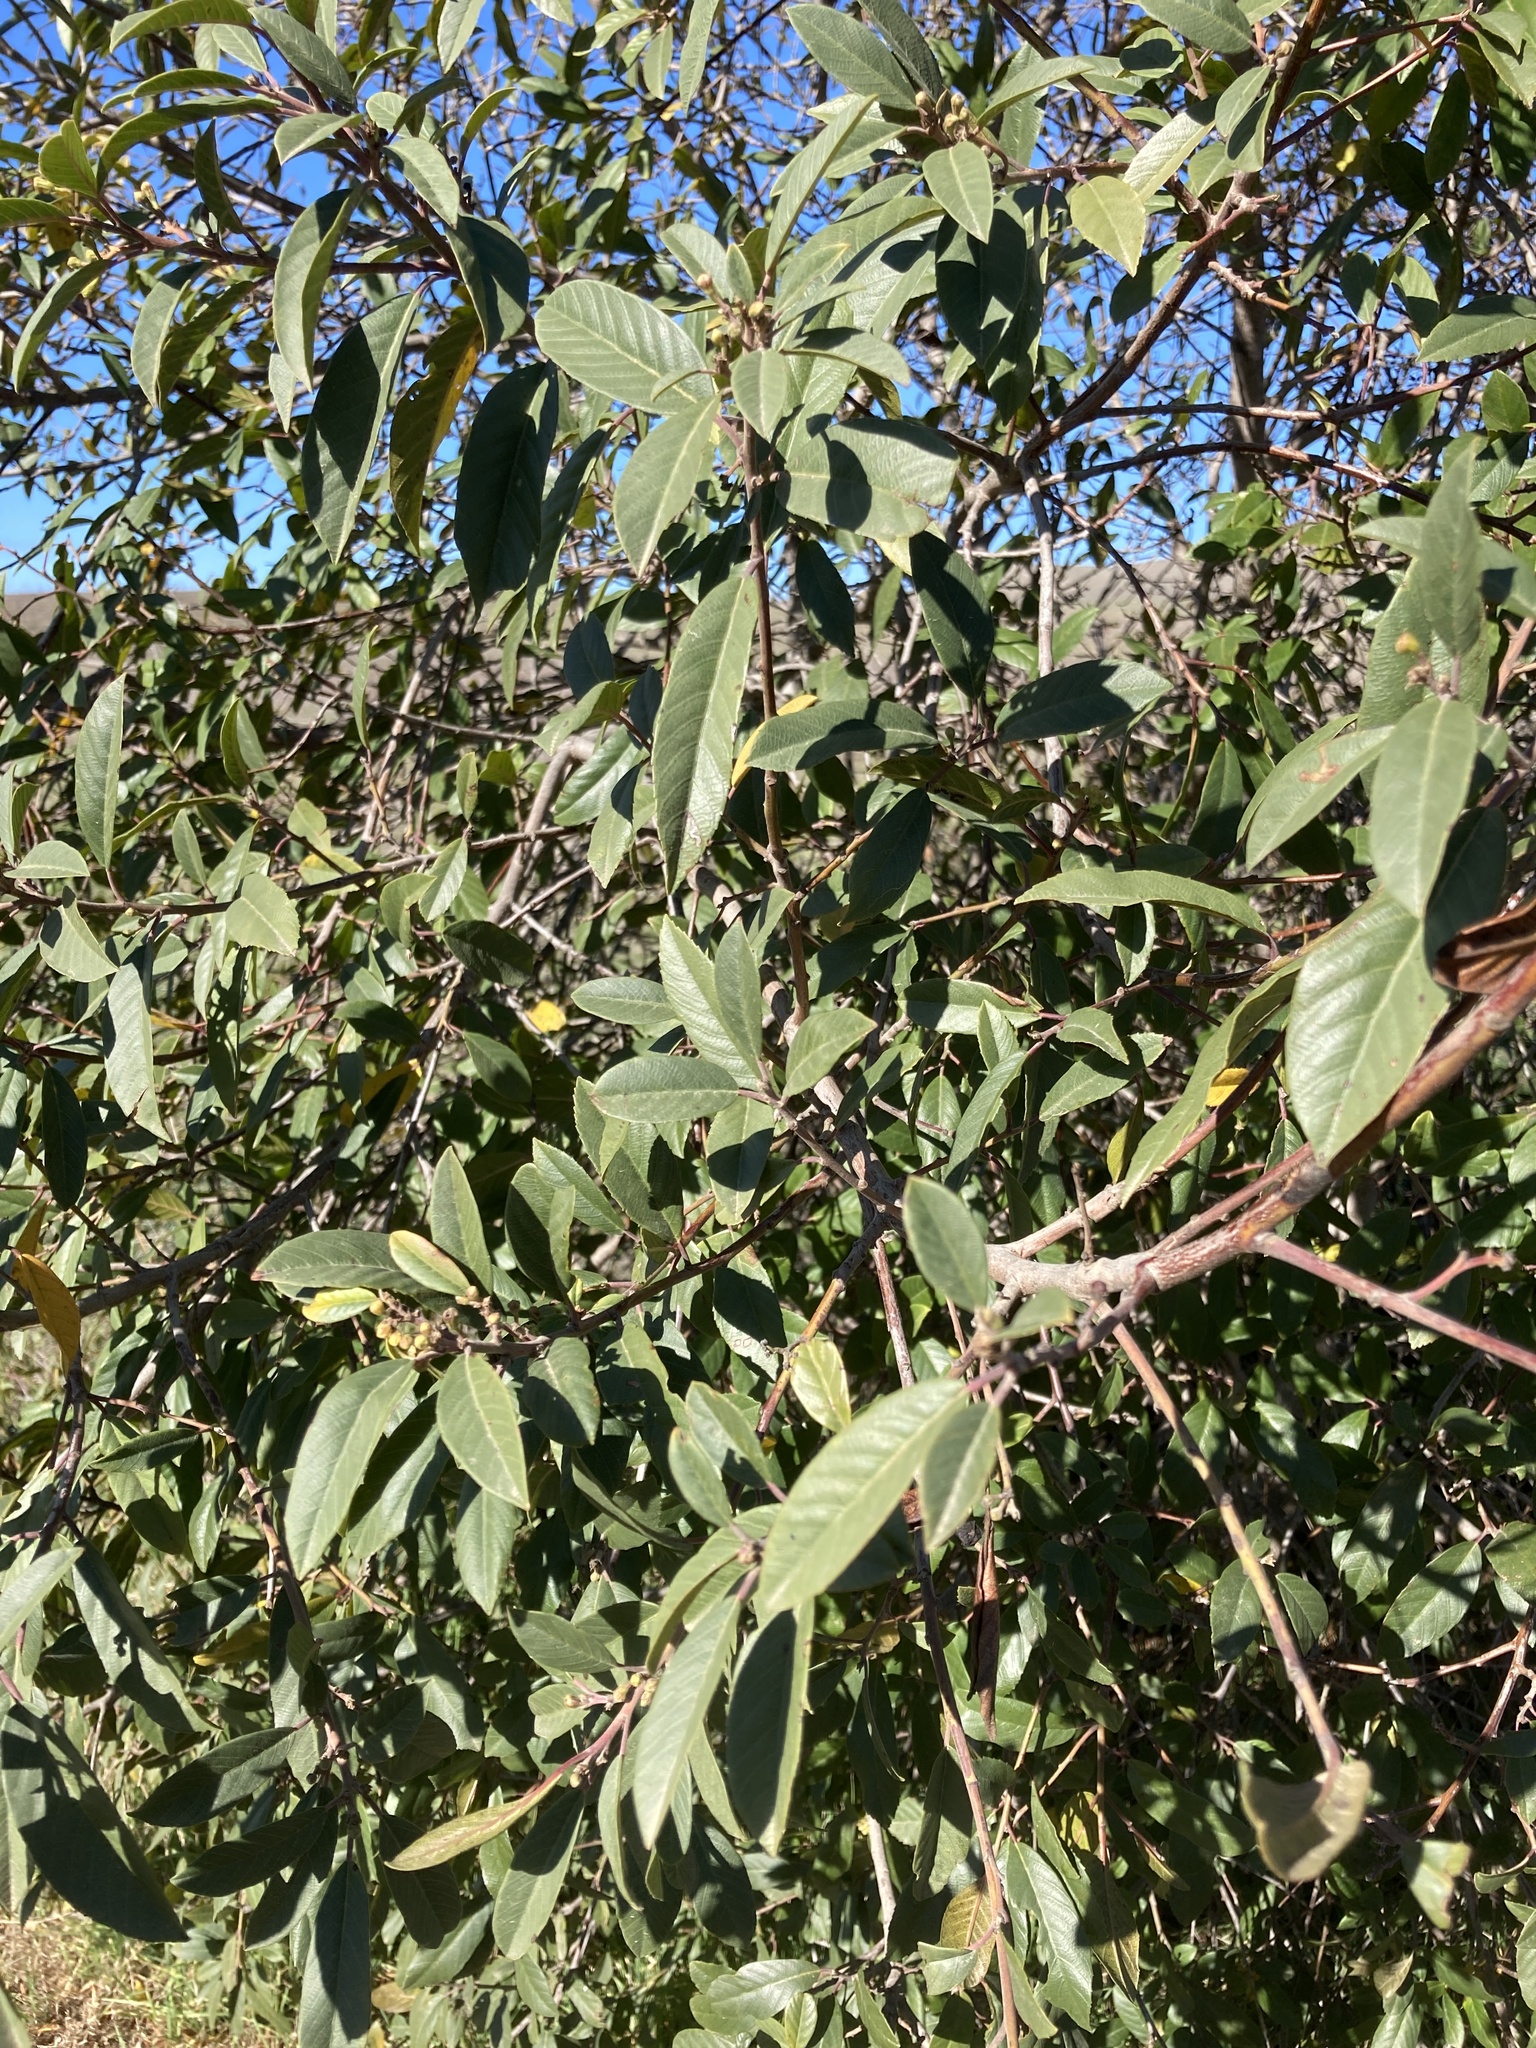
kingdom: Plantae
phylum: Tracheophyta
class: Magnoliopsida
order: Rosales
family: Rhamnaceae
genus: Frangula
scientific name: Frangula californica
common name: California buckthorn
